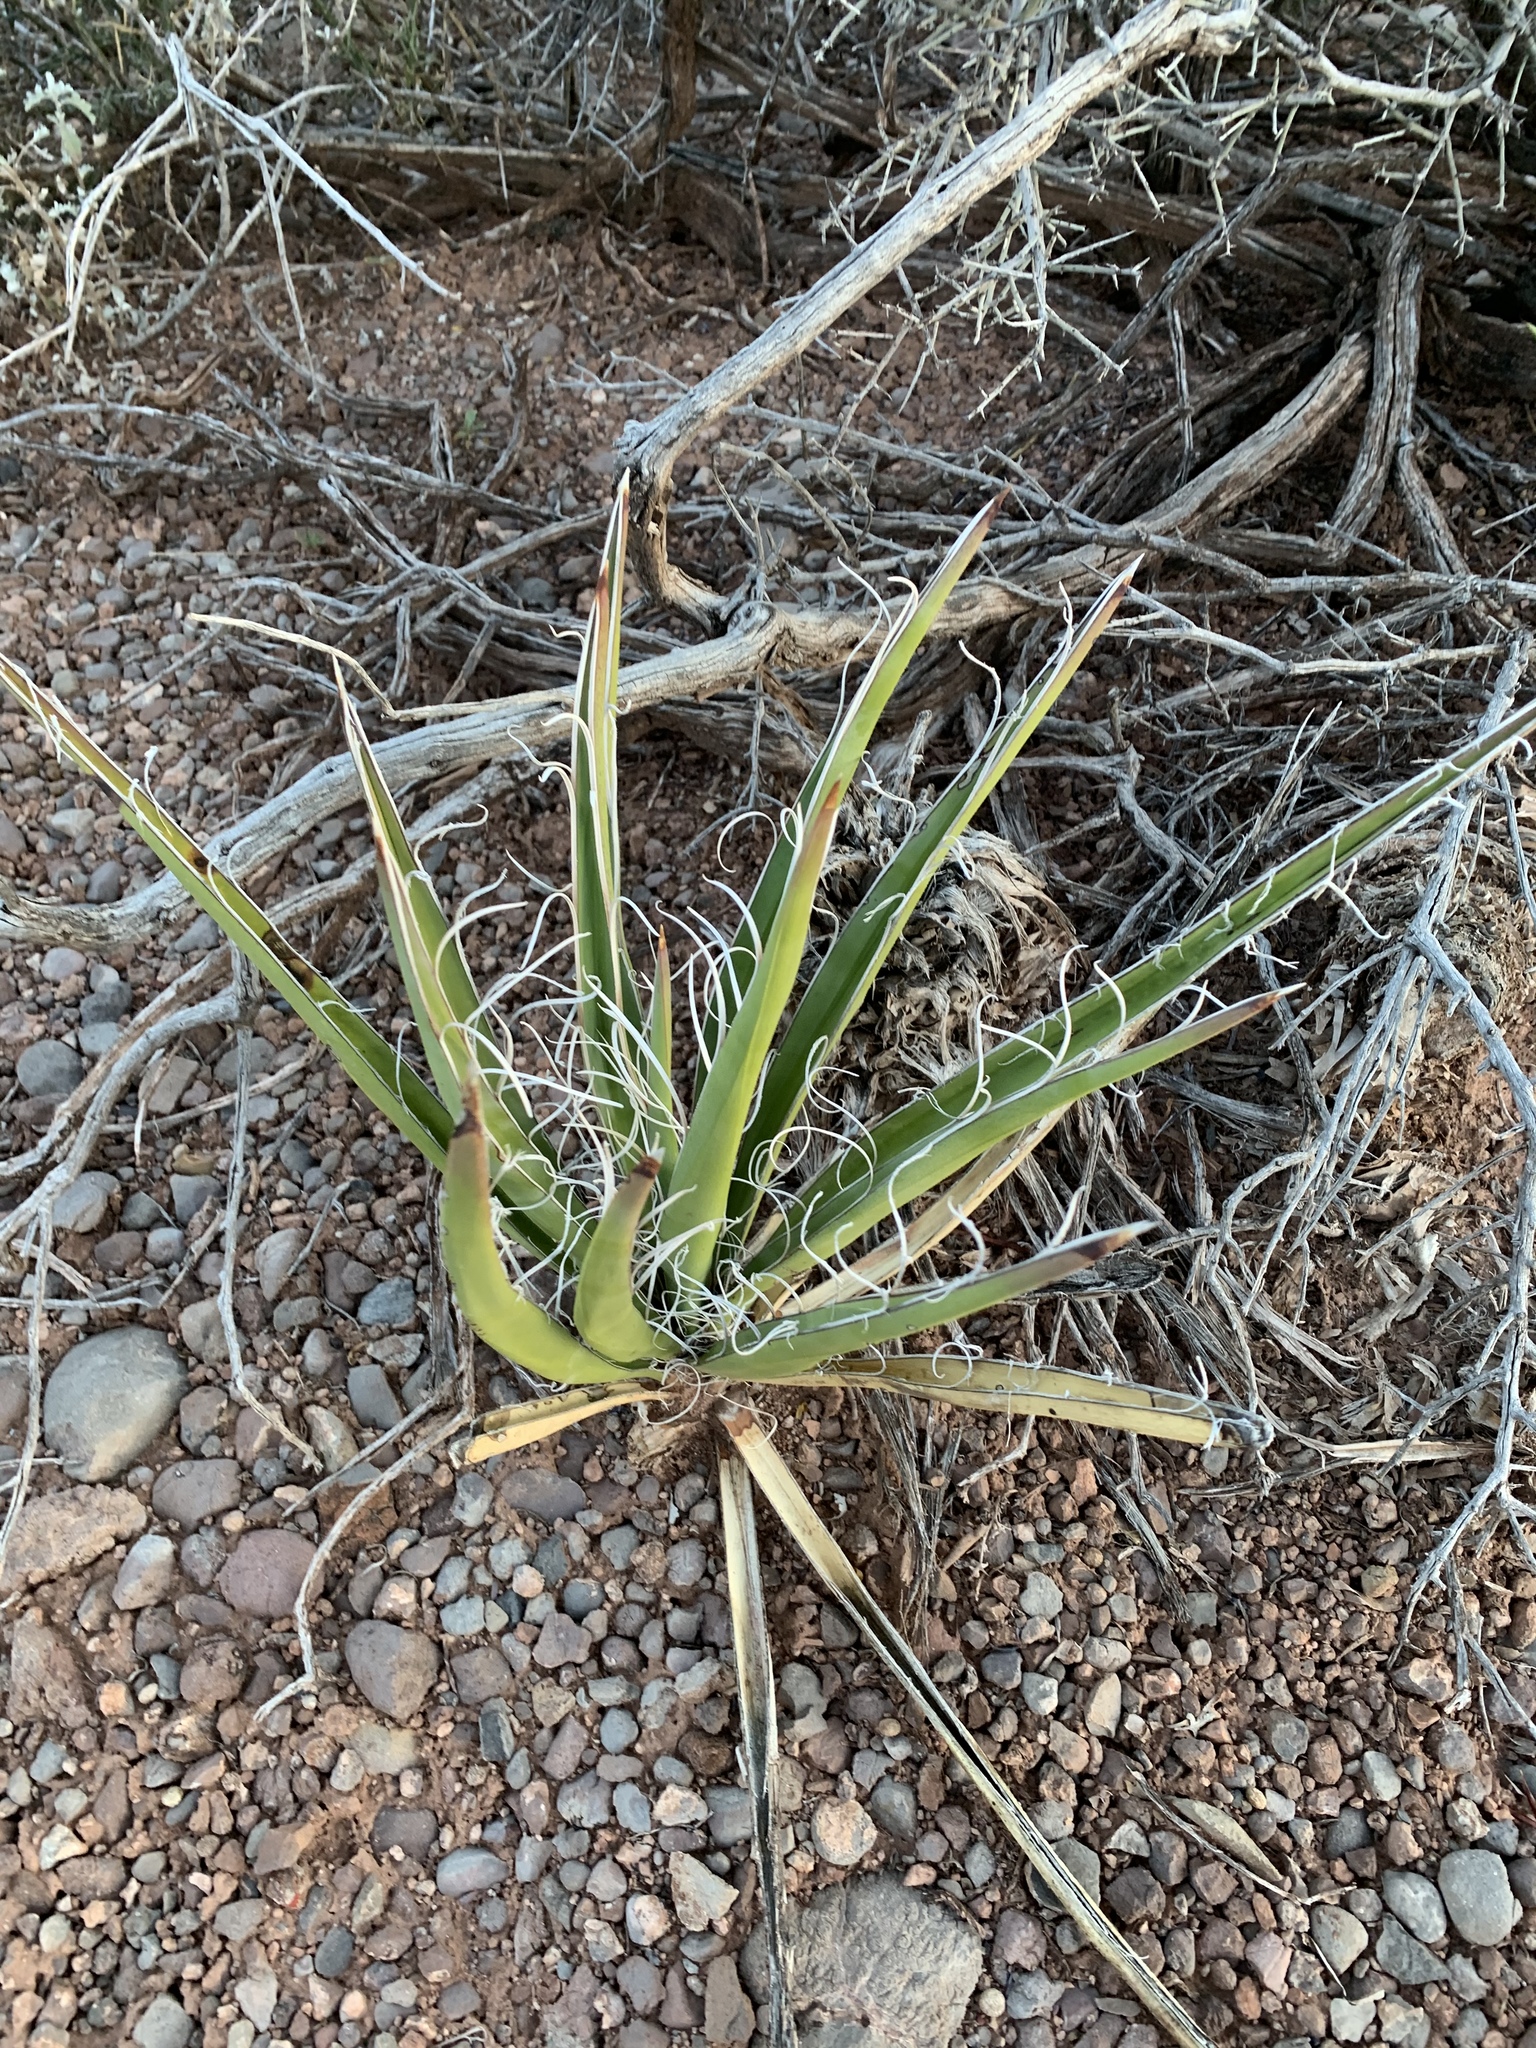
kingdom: Plantae
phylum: Tracheophyta
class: Liliopsida
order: Asparagales
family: Asparagaceae
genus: Yucca
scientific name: Yucca baccata
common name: Banana yucca
